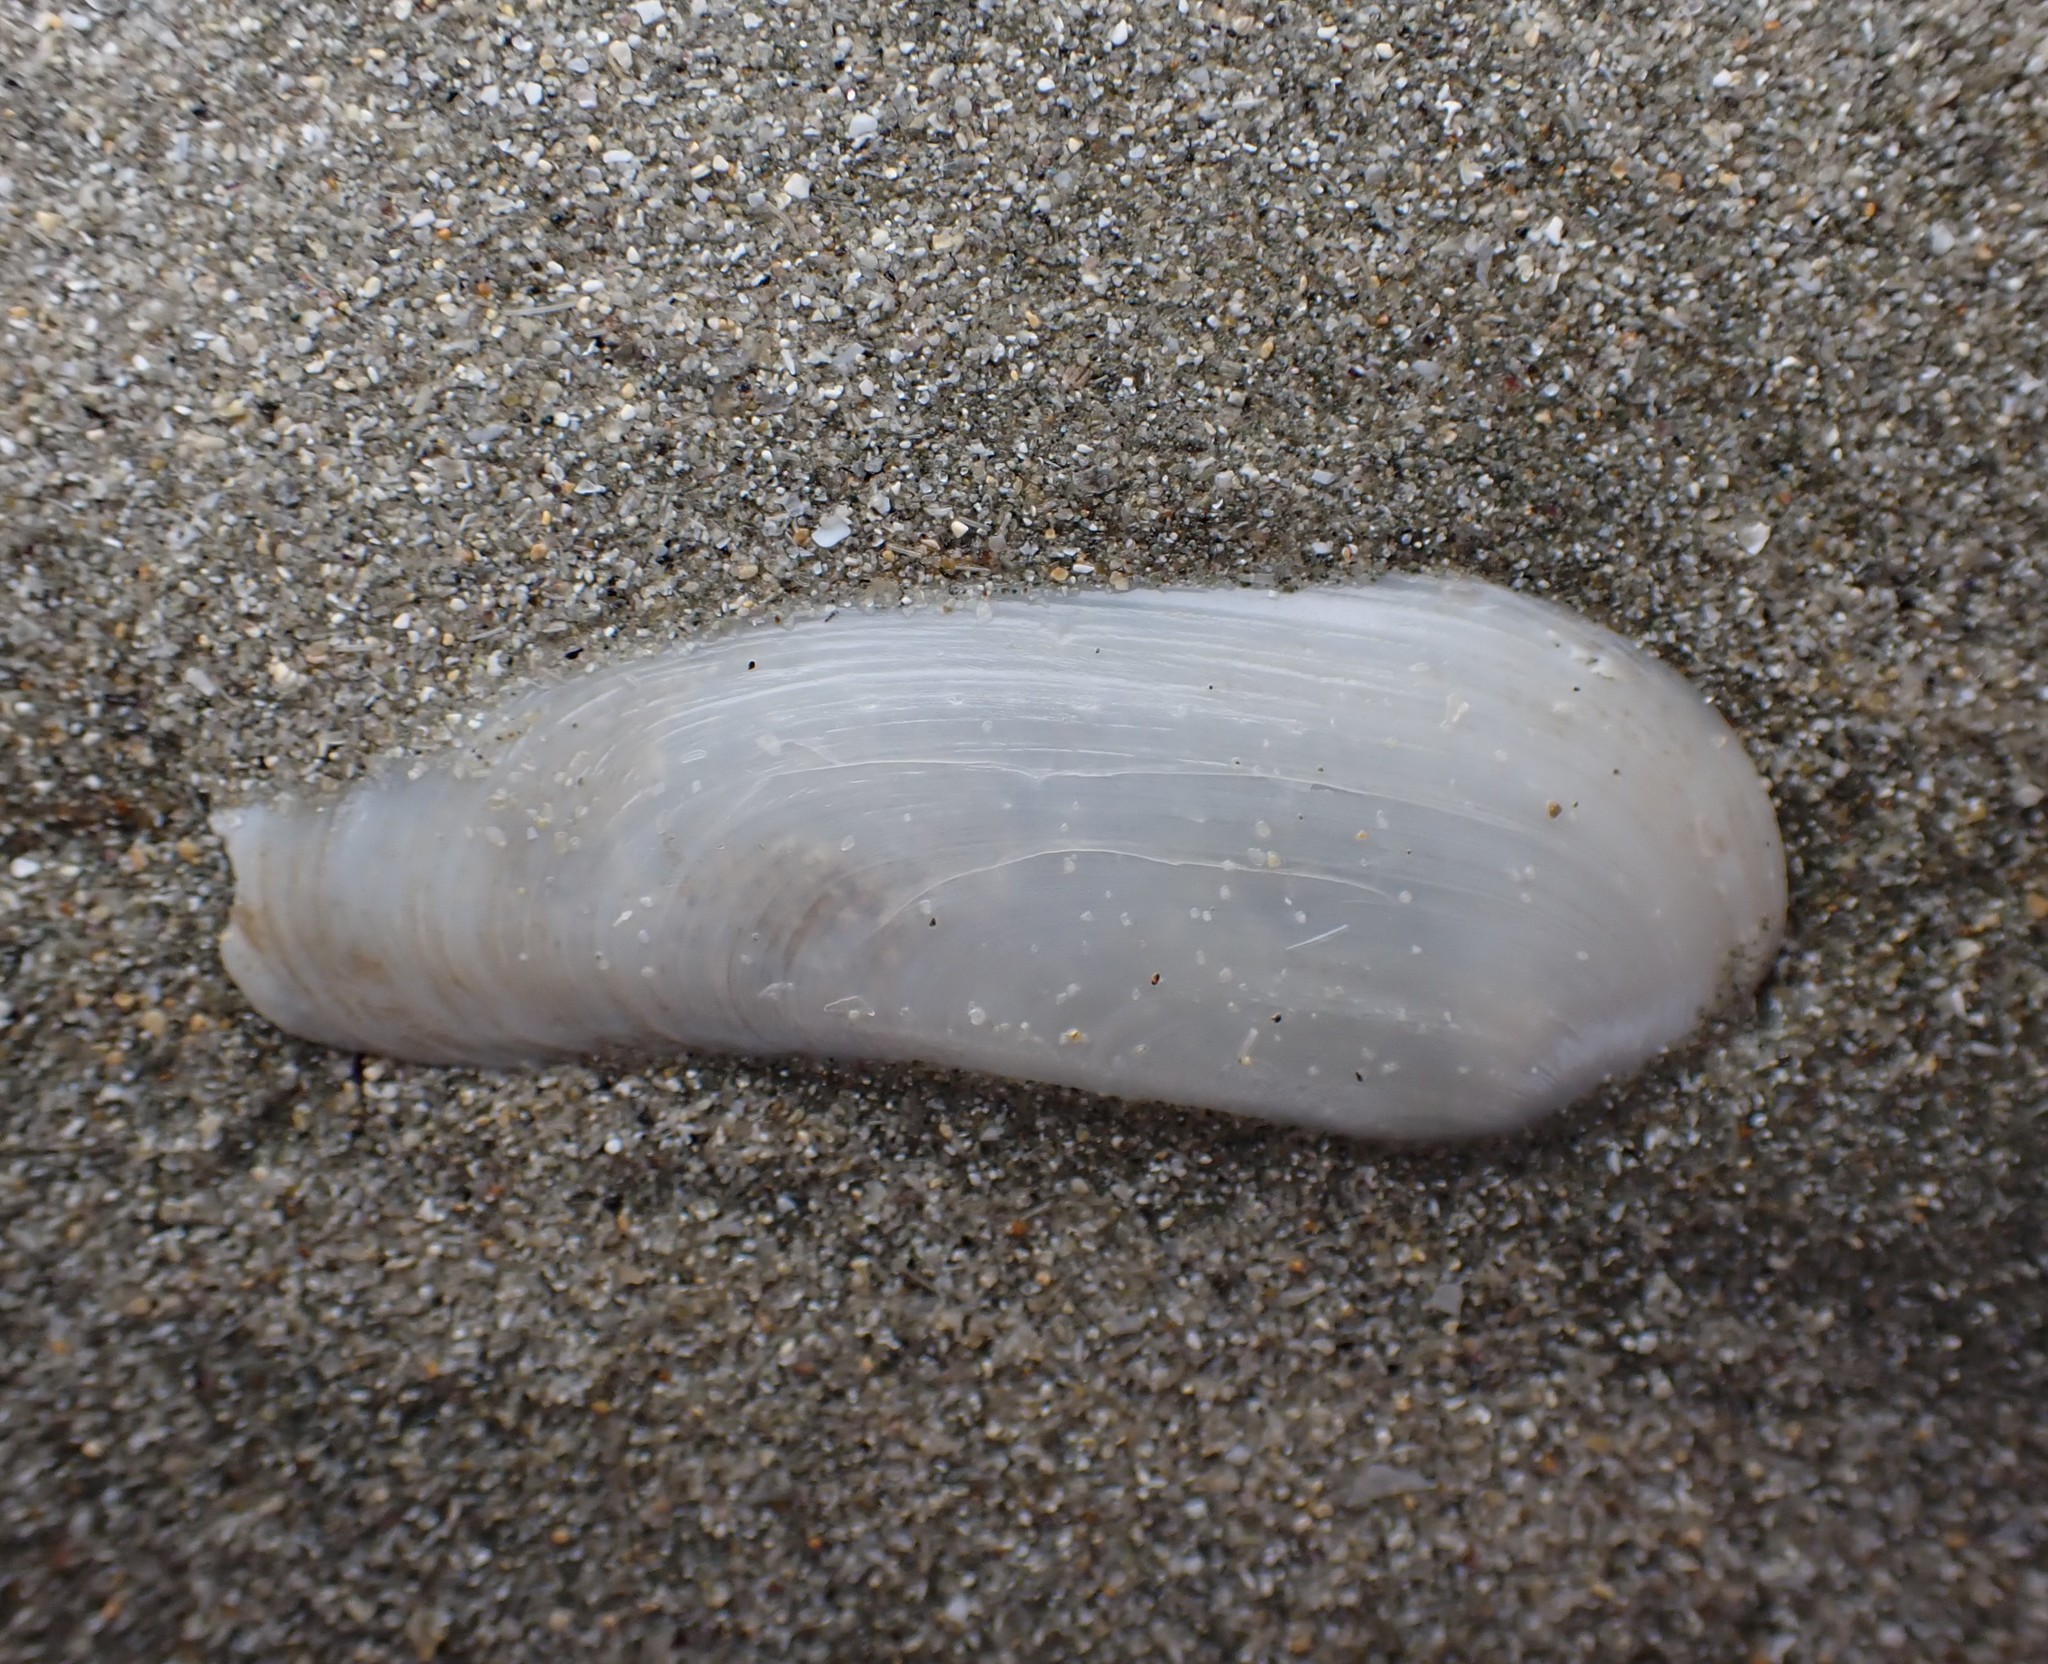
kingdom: Animalia
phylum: Mollusca
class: Bivalvia
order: Venerida
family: Mactridae
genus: Zenatia
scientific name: Zenatia acinaces
